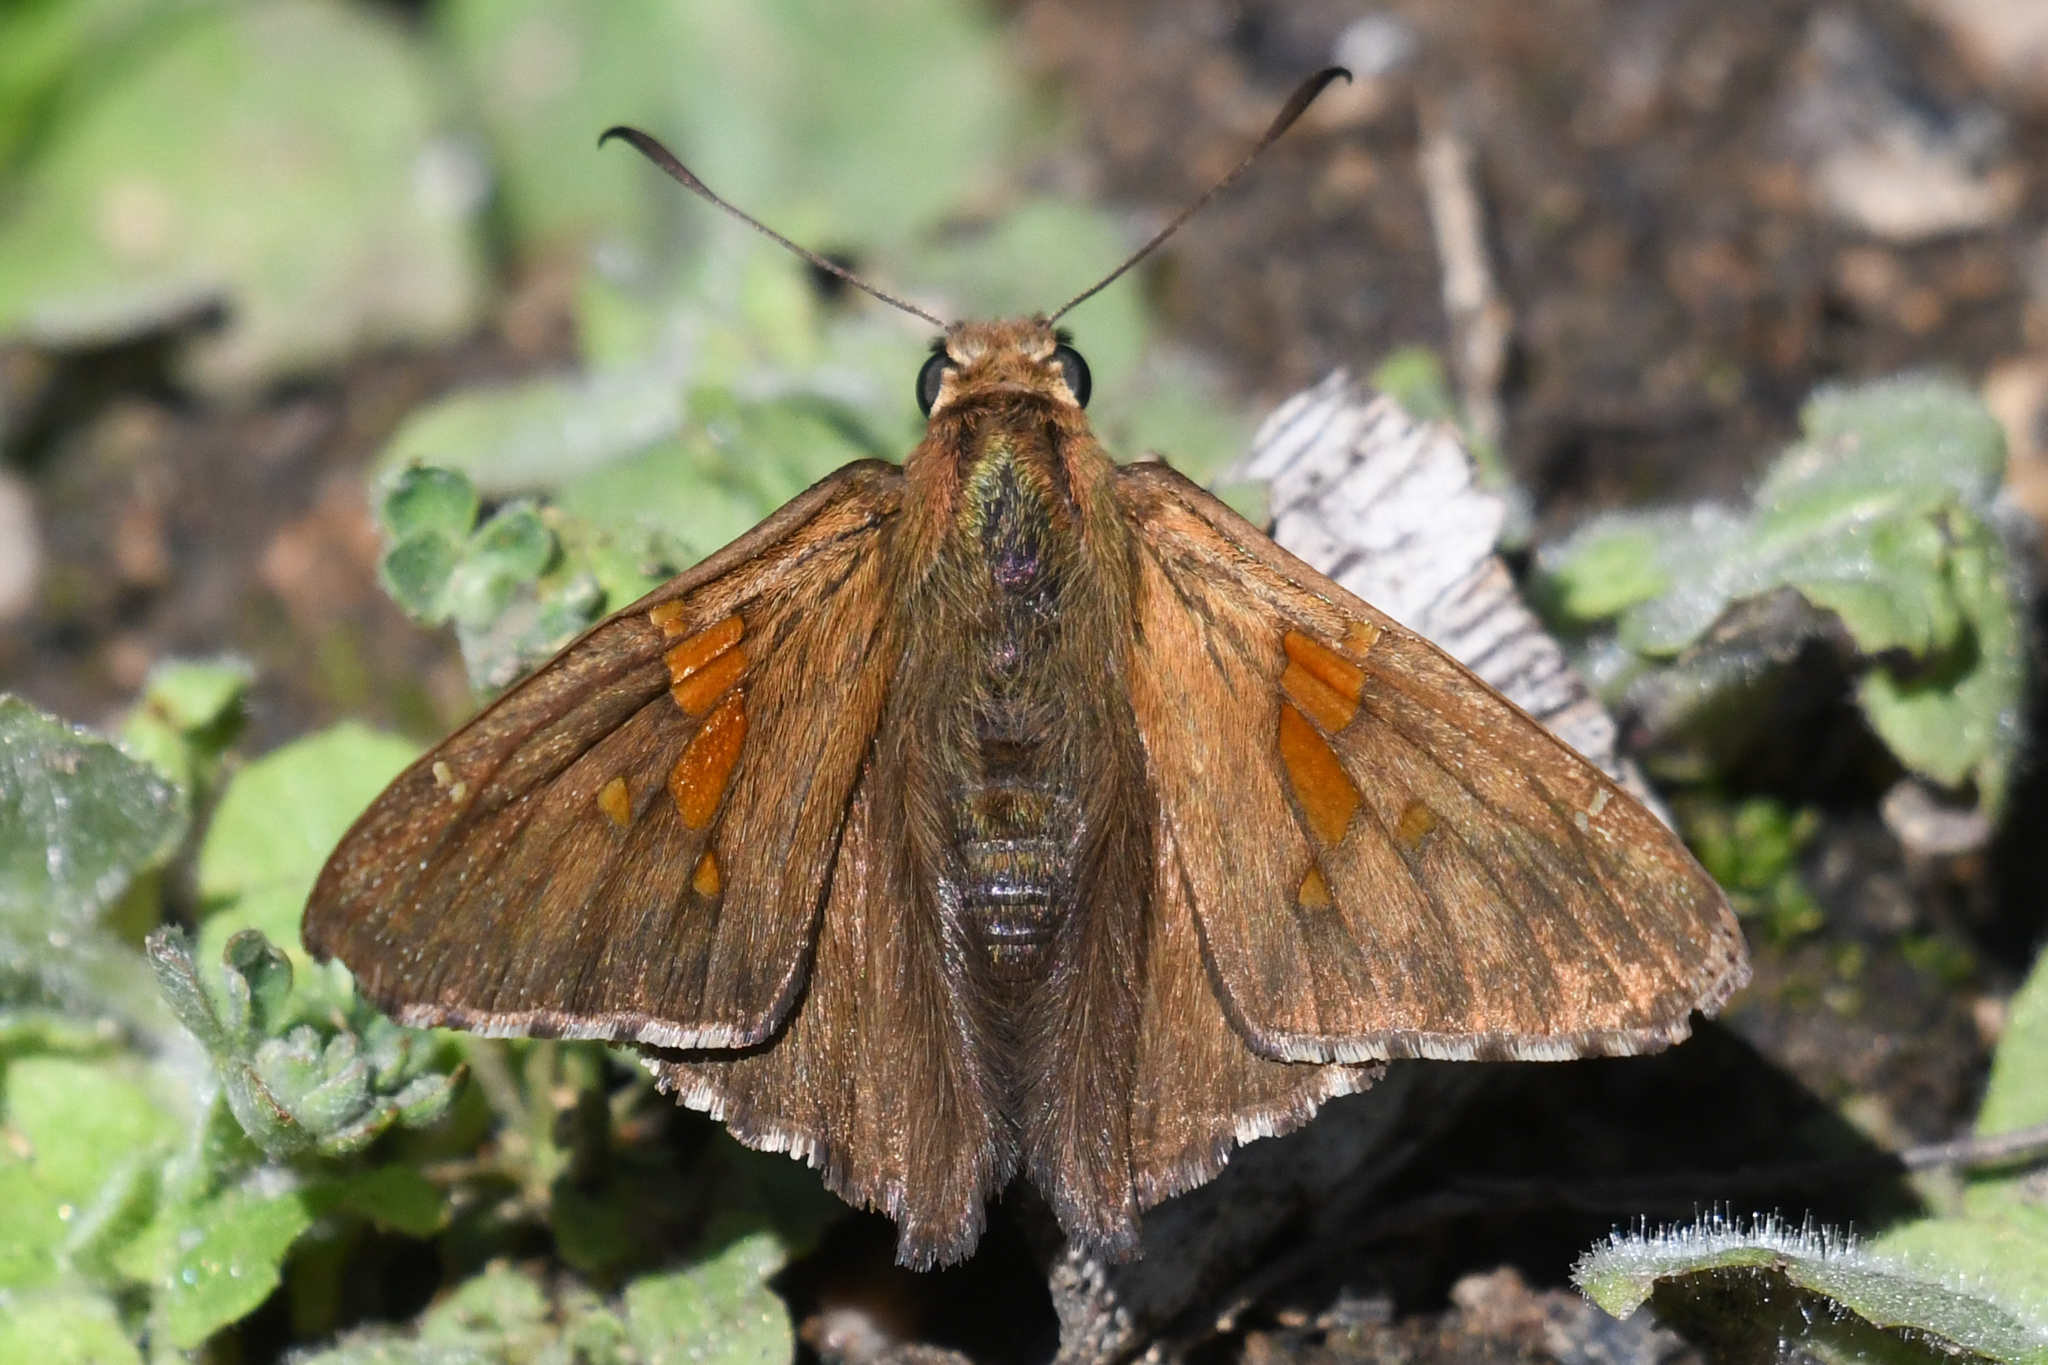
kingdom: Animalia
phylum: Arthropoda
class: Insecta
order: Lepidoptera
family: Hesperiidae
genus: Epargyreus
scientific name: Epargyreus clarus
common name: Silver-spotted skipper
